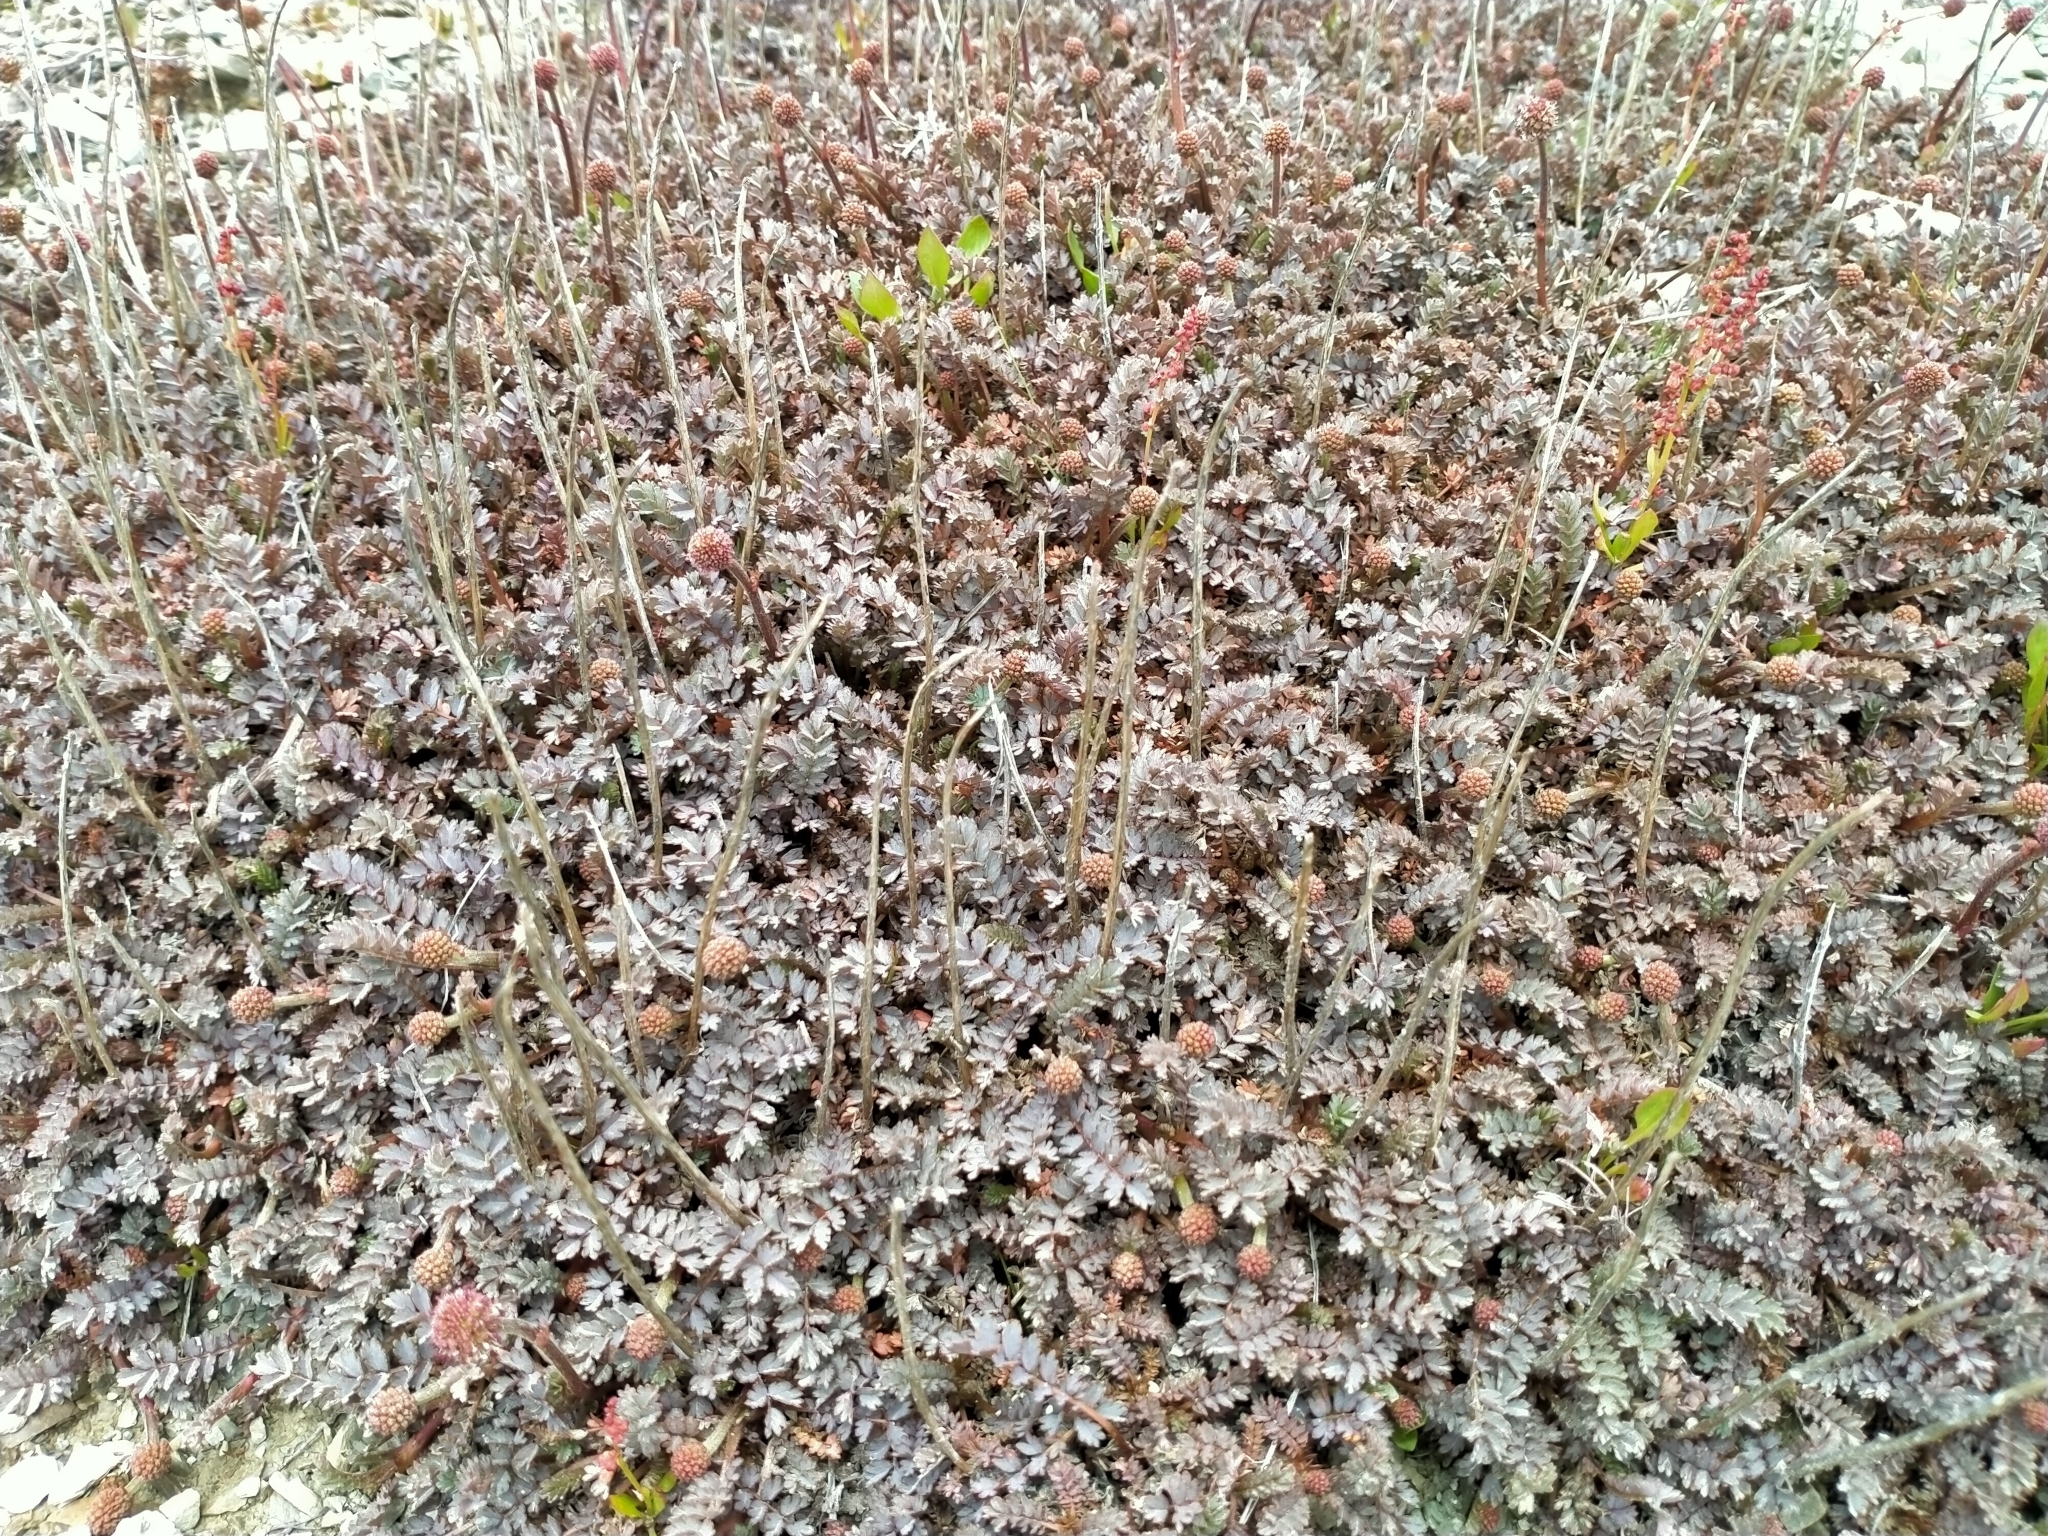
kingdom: Plantae
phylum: Tracheophyta
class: Magnoliopsida
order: Rosales
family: Rosaceae
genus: Acaena
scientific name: Acaena saccaticupula
